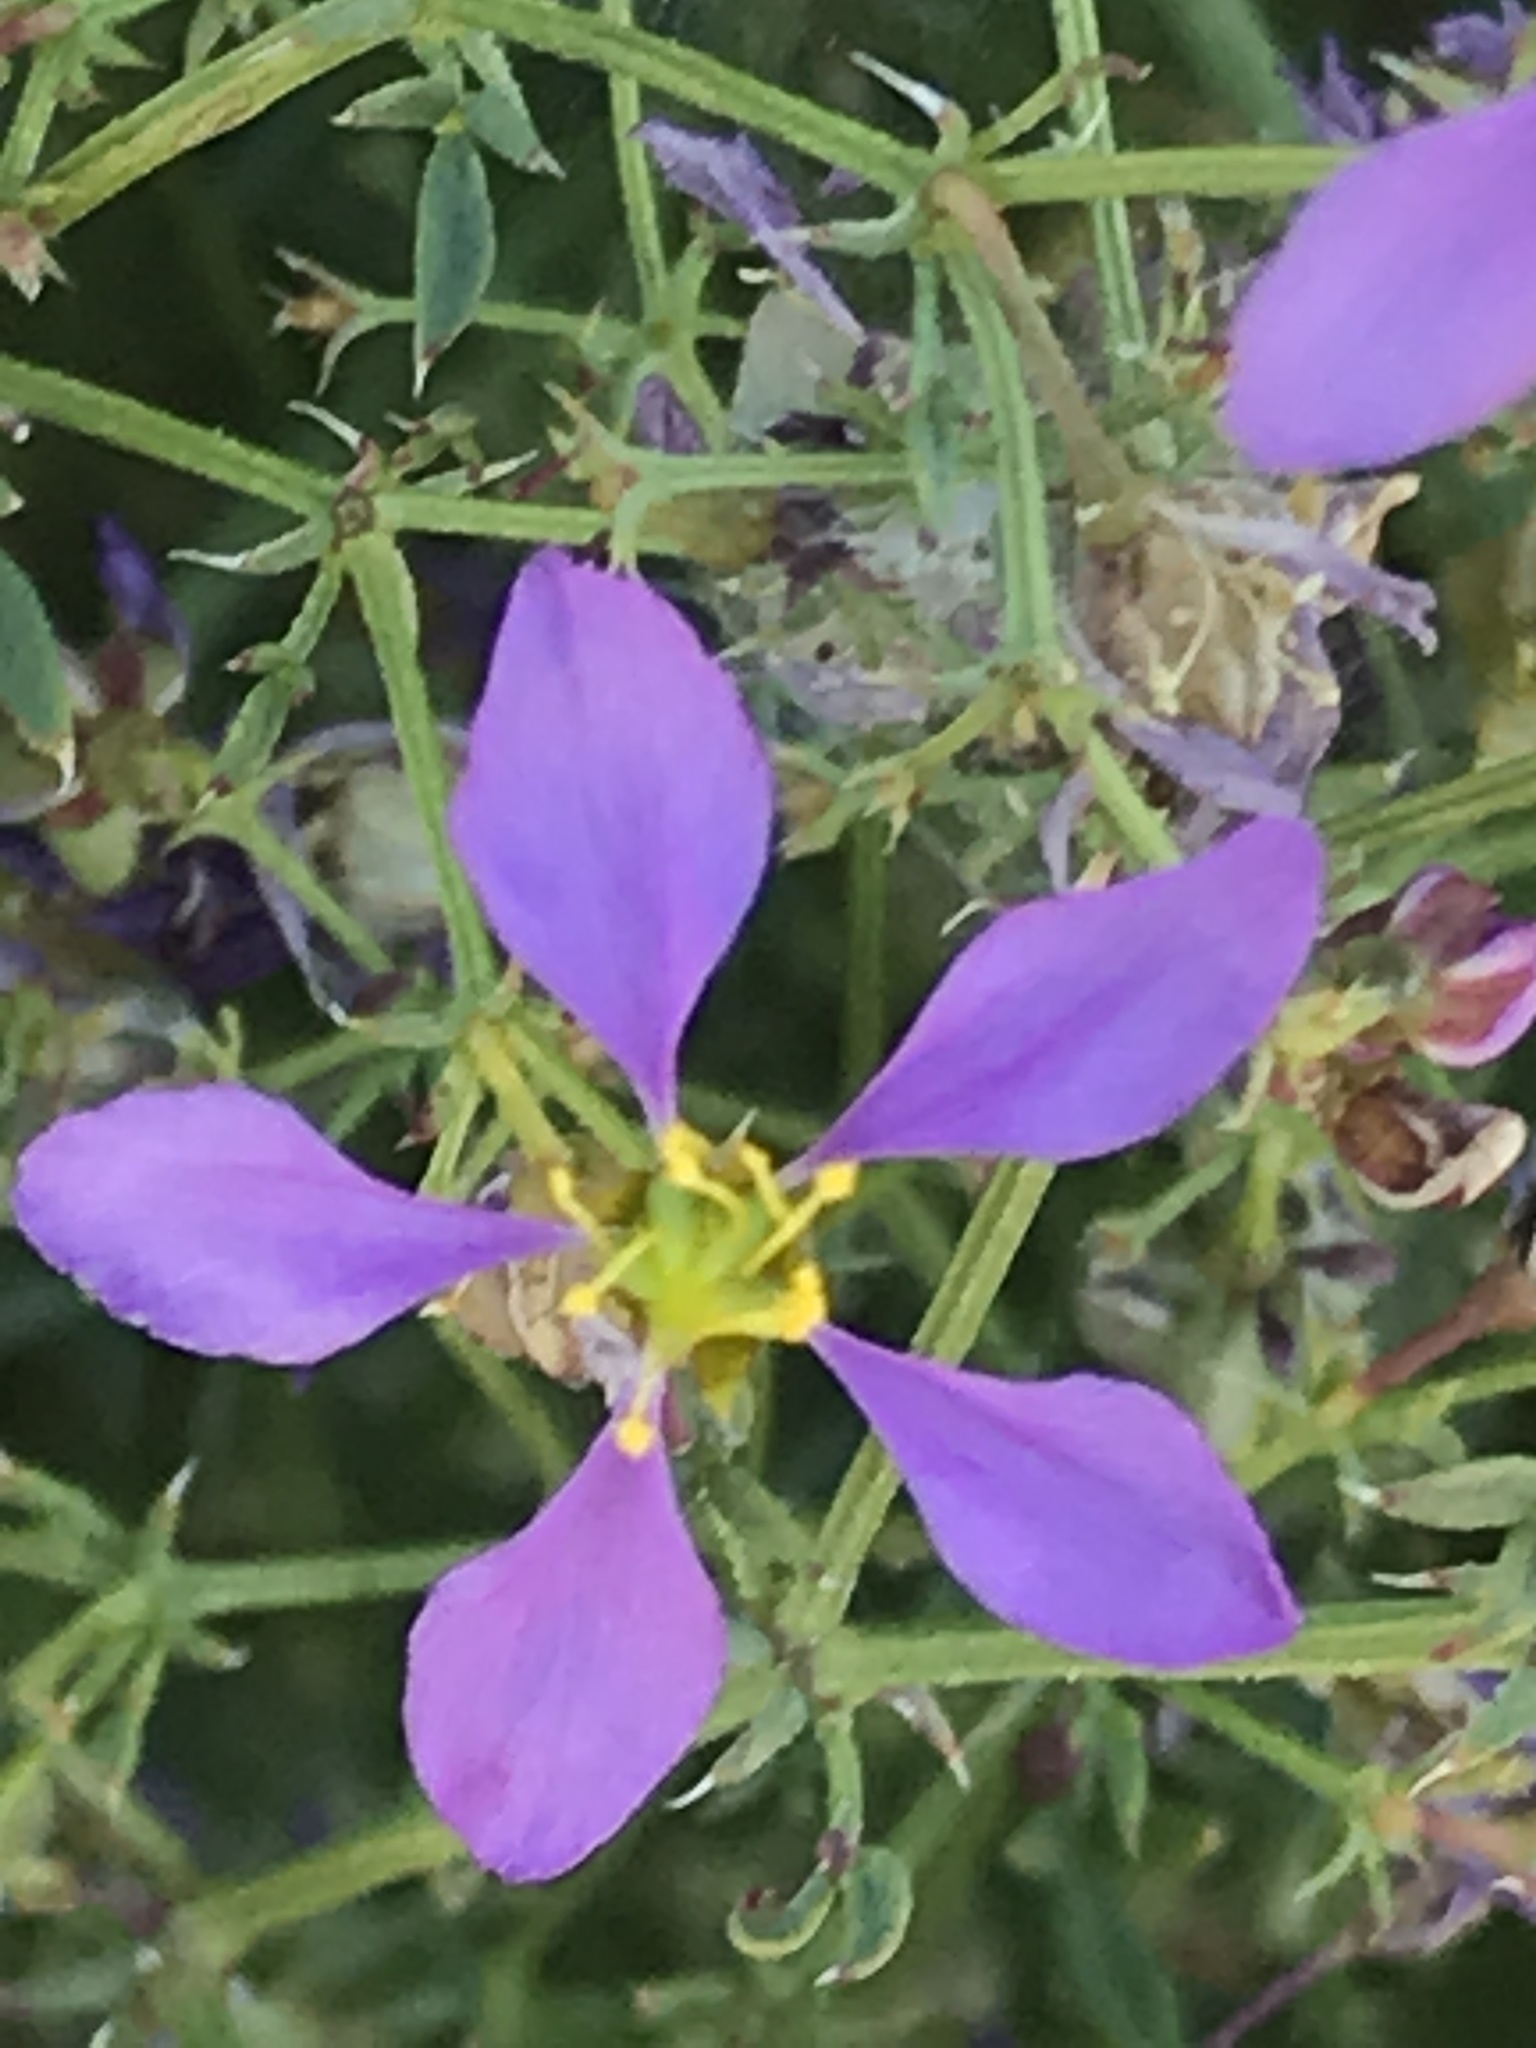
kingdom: Plantae
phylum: Tracheophyta
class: Magnoliopsida
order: Zygophyllales
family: Zygophyllaceae
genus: Fagonia
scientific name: Fagonia laevis
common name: California fagonbush
